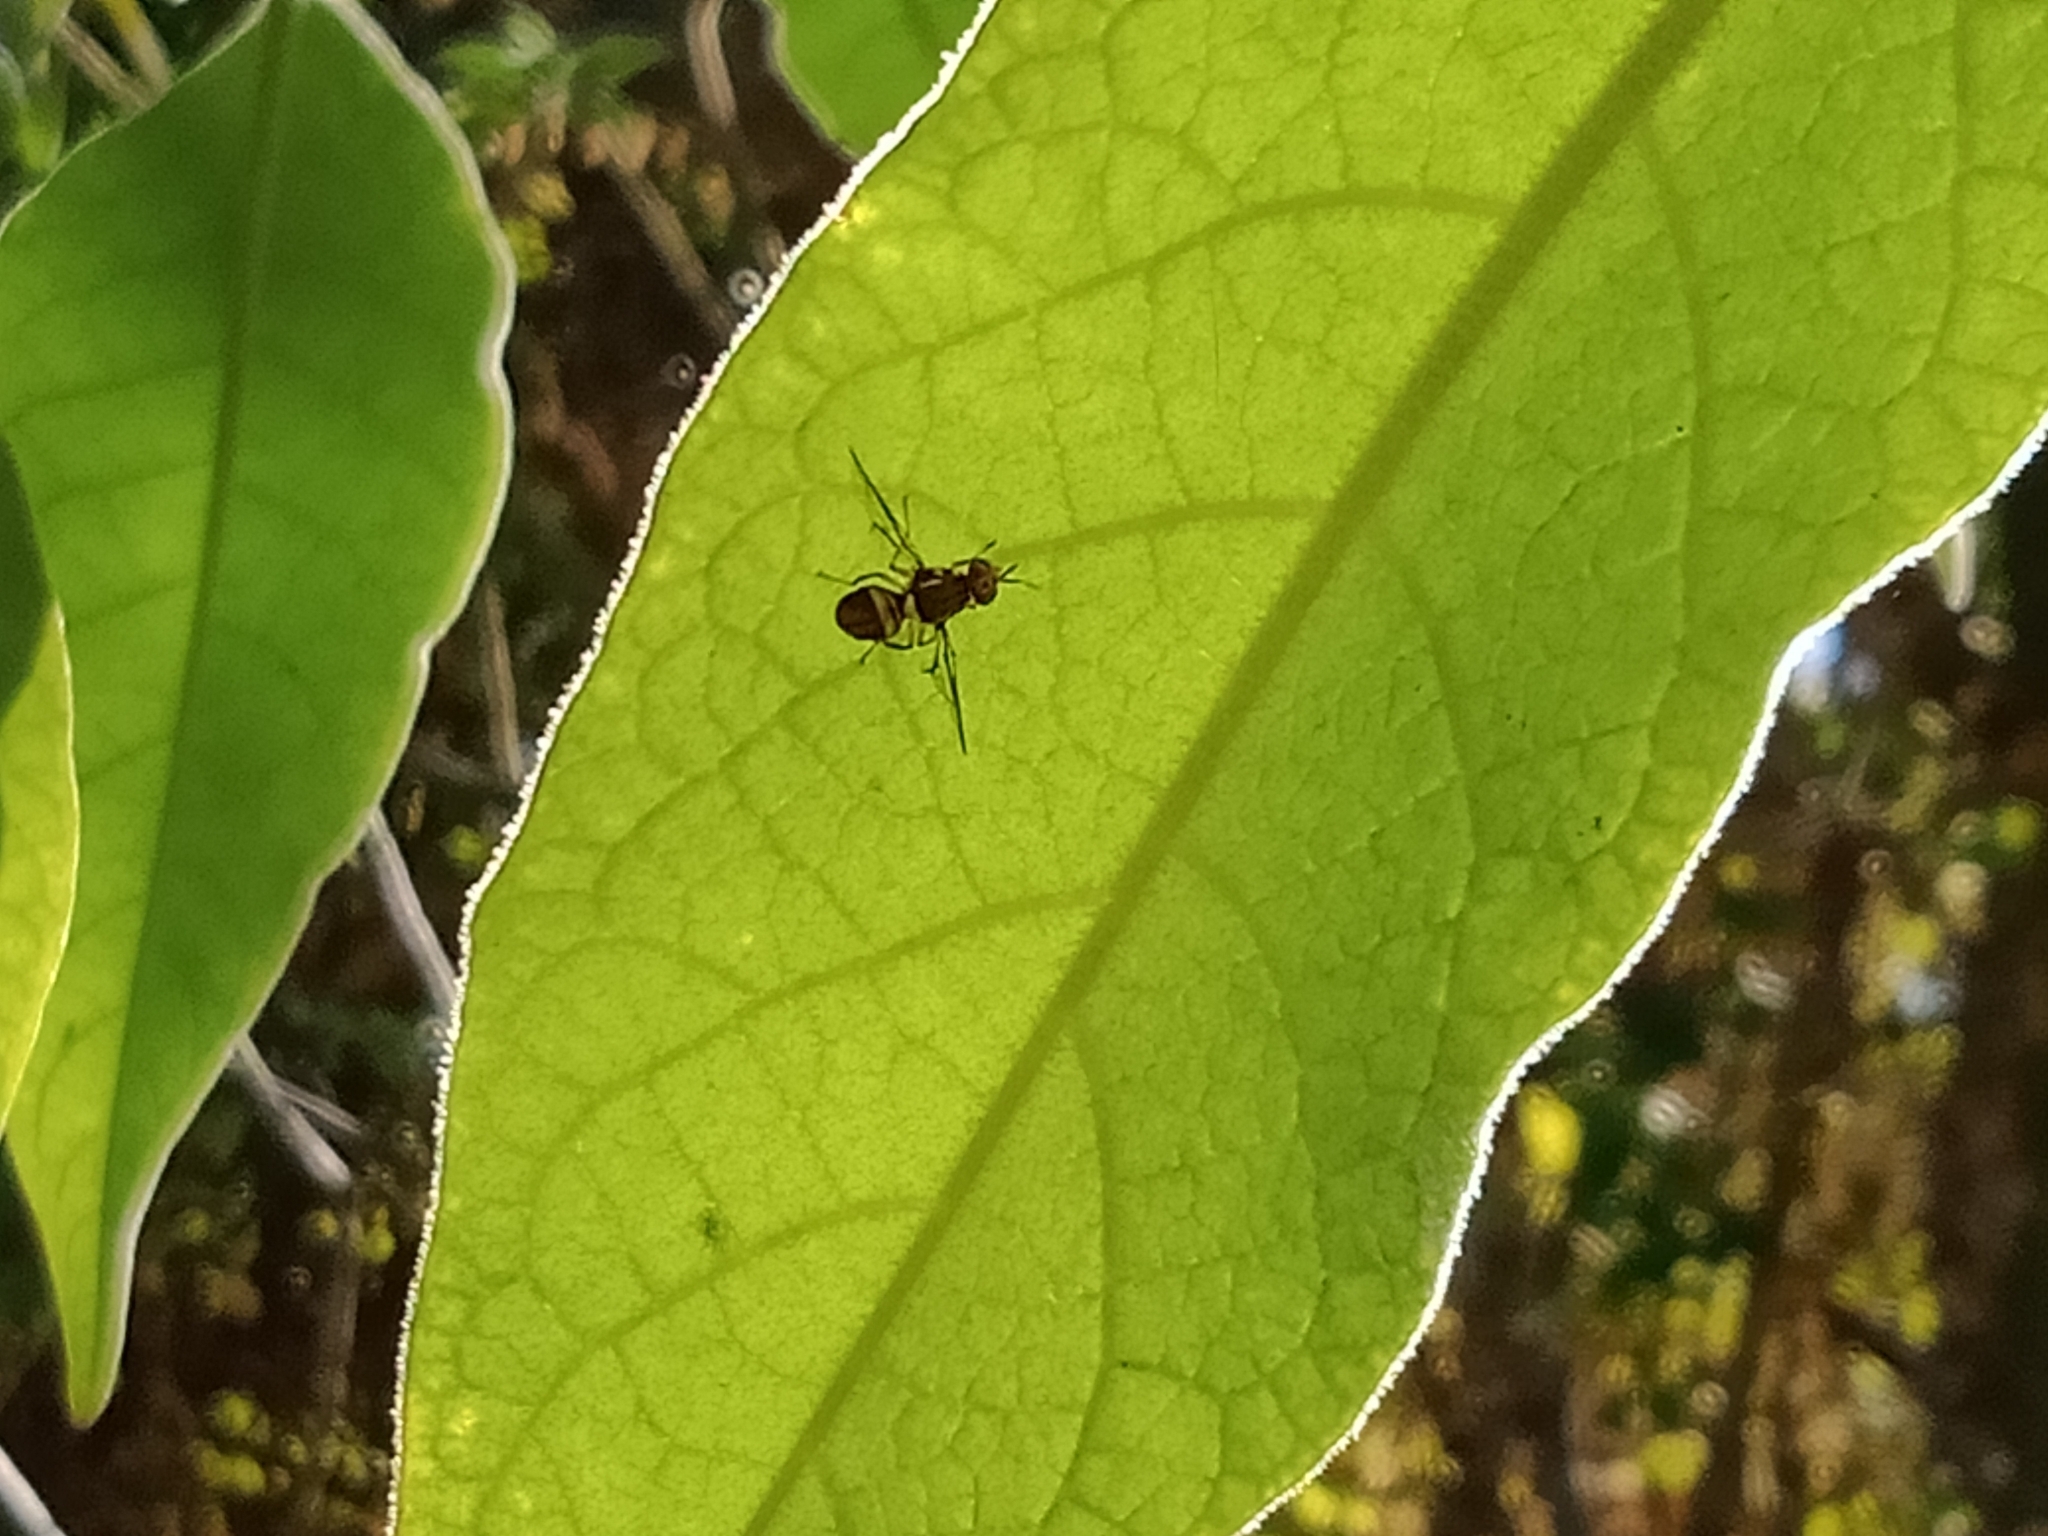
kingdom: Animalia
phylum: Arthropoda
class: Insecta
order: Diptera
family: Tephritidae
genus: Bactrocera
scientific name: Bactrocera cacuminata
